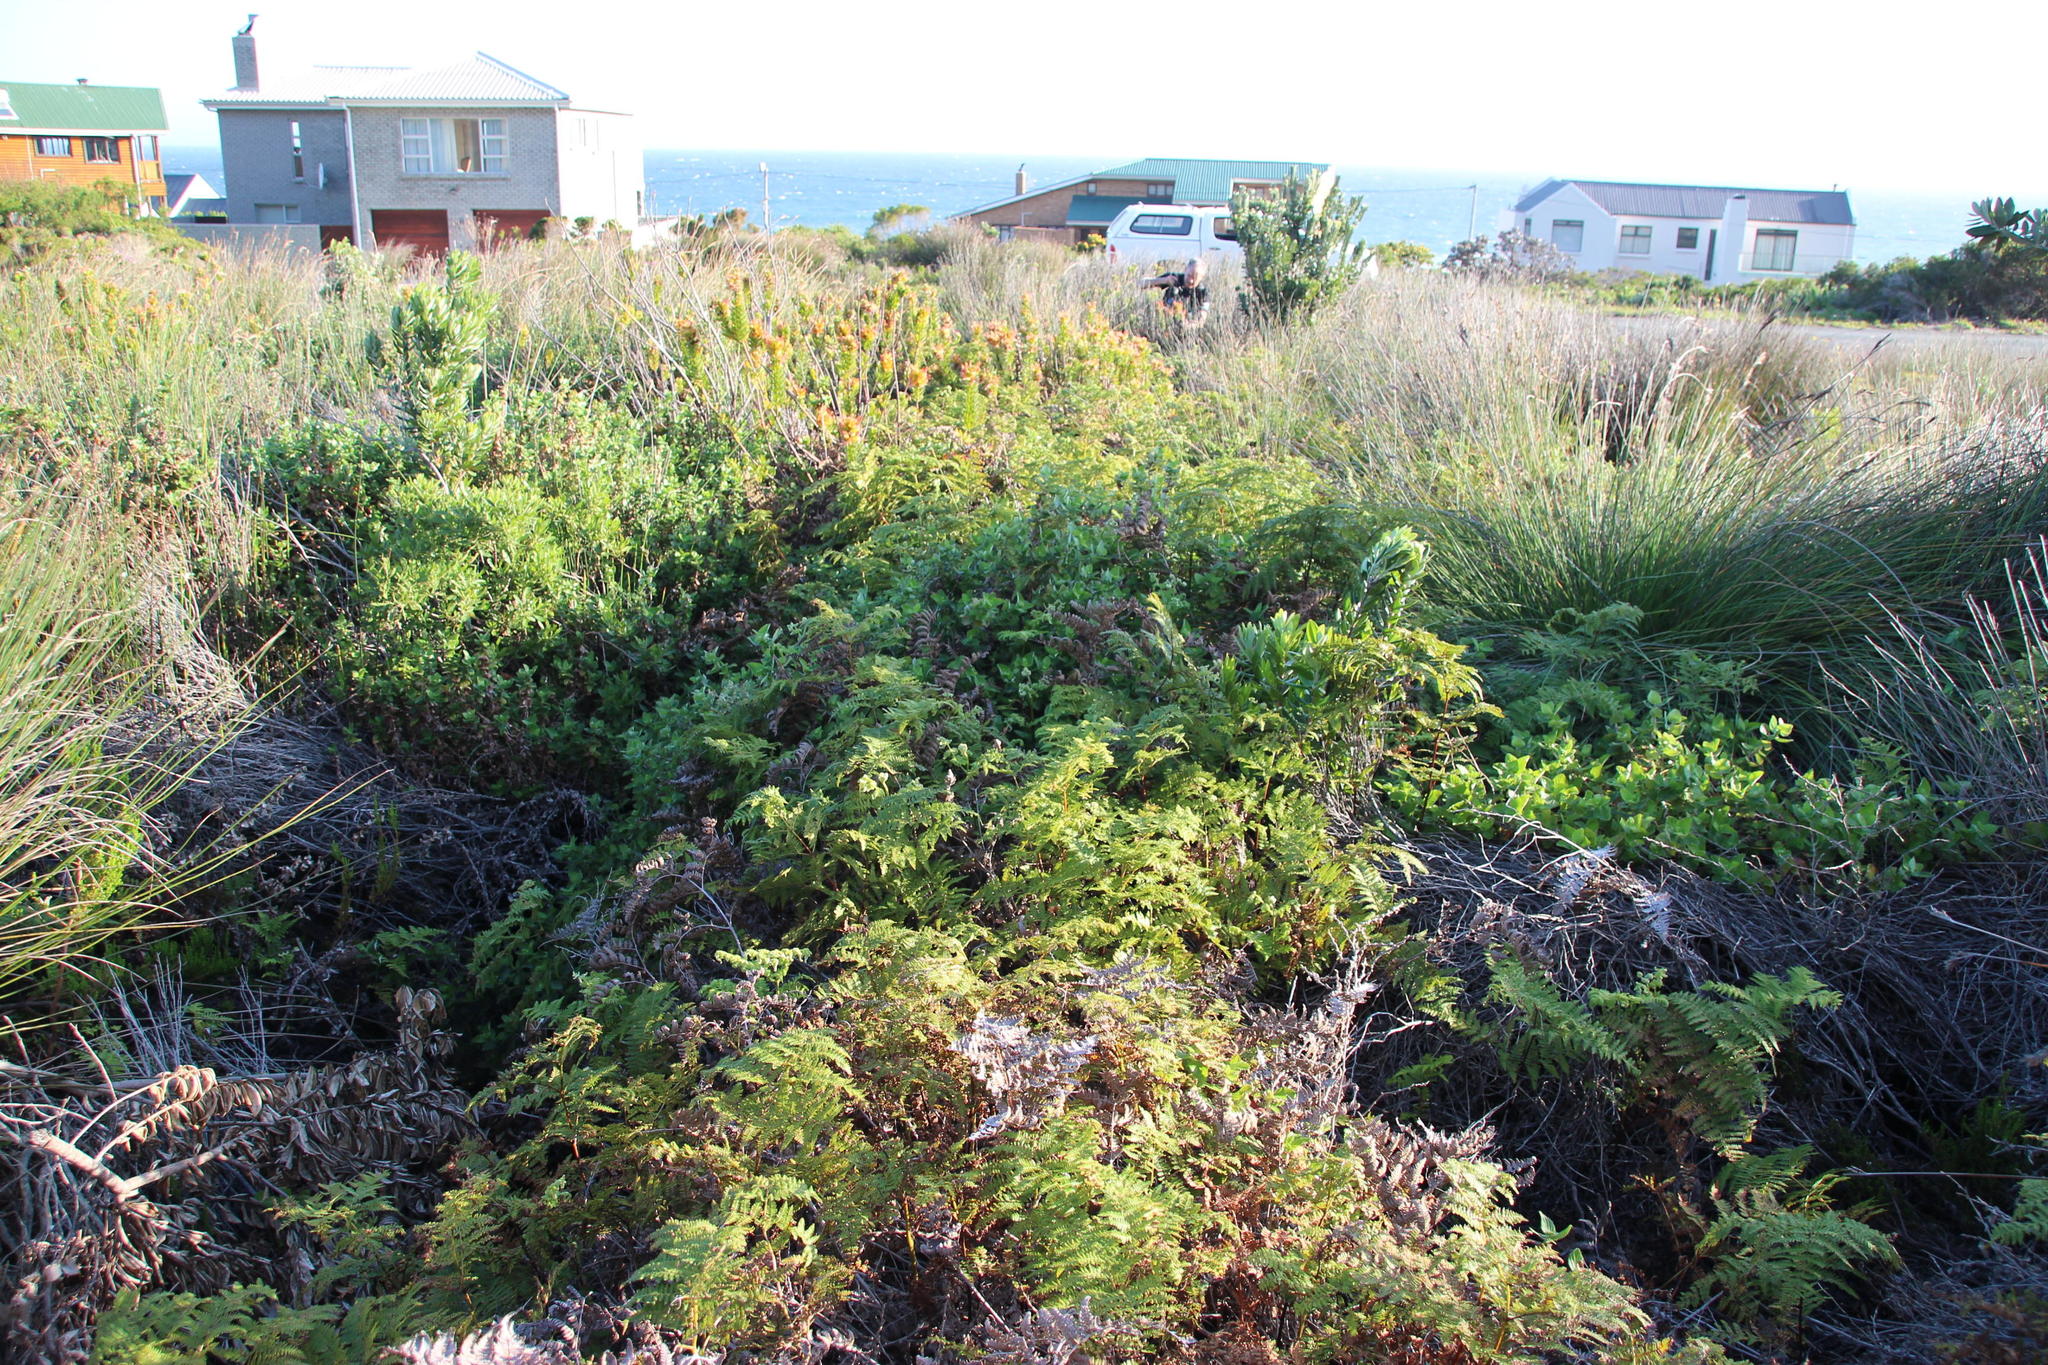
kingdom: Plantae
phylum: Tracheophyta
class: Polypodiopsida
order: Polypodiales
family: Dennstaedtiaceae
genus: Pteridium
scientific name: Pteridium aquilinum
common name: Bracken
